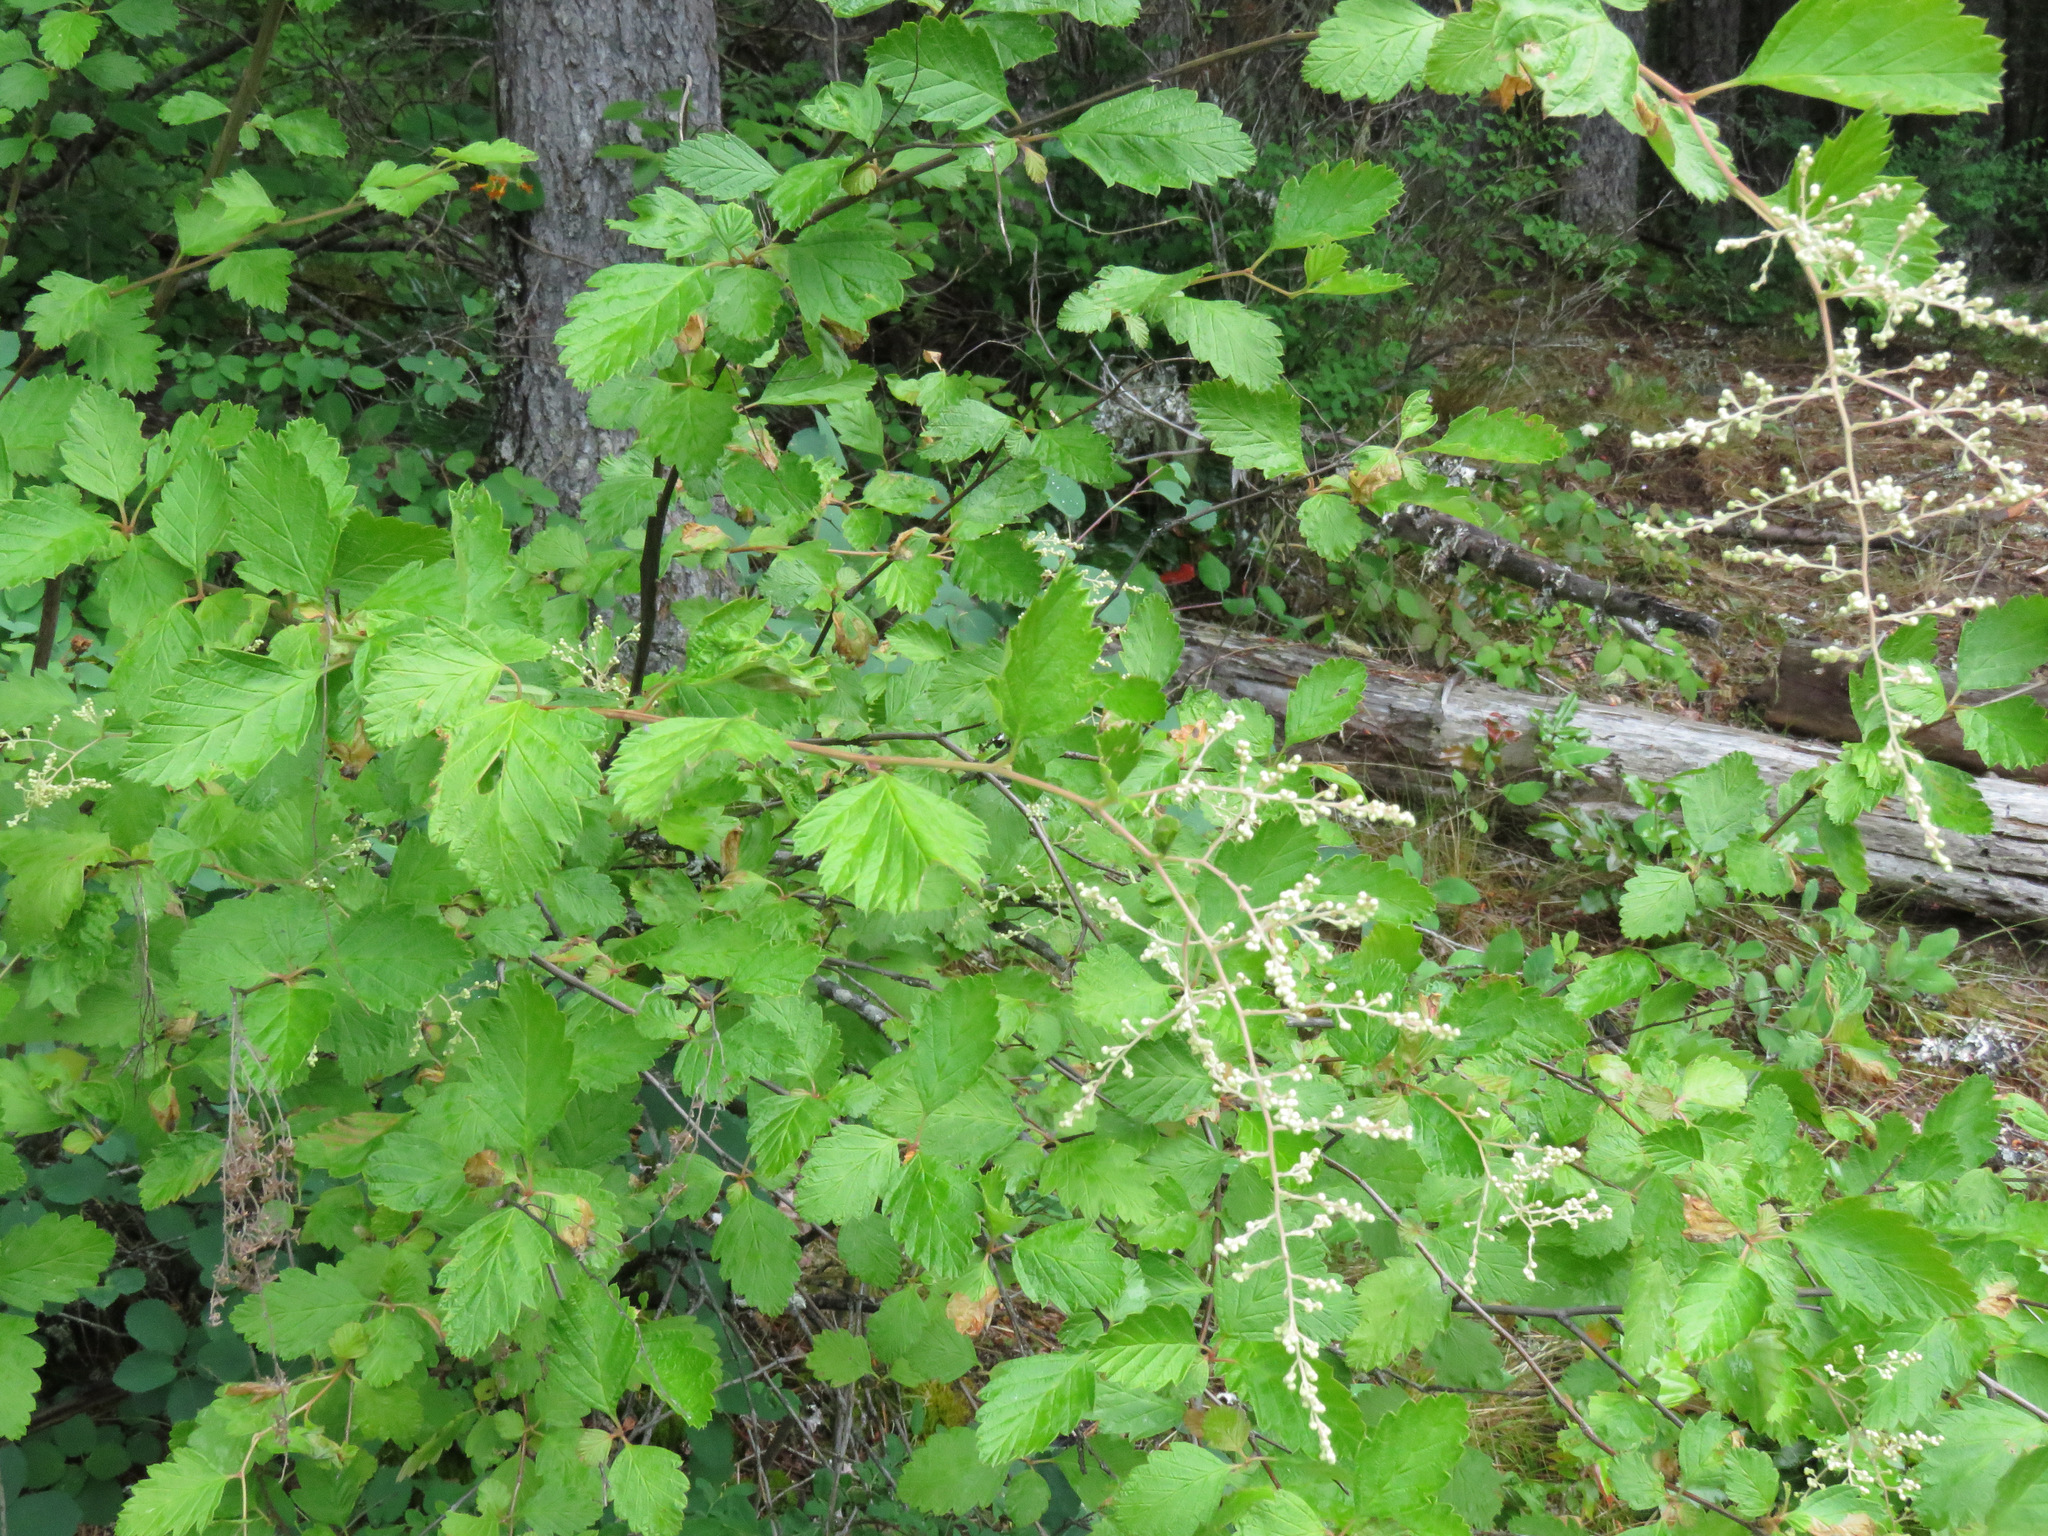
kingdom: Plantae
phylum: Tracheophyta
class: Magnoliopsida
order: Rosales
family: Rosaceae
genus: Holodiscus
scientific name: Holodiscus discolor
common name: Oceanspray
